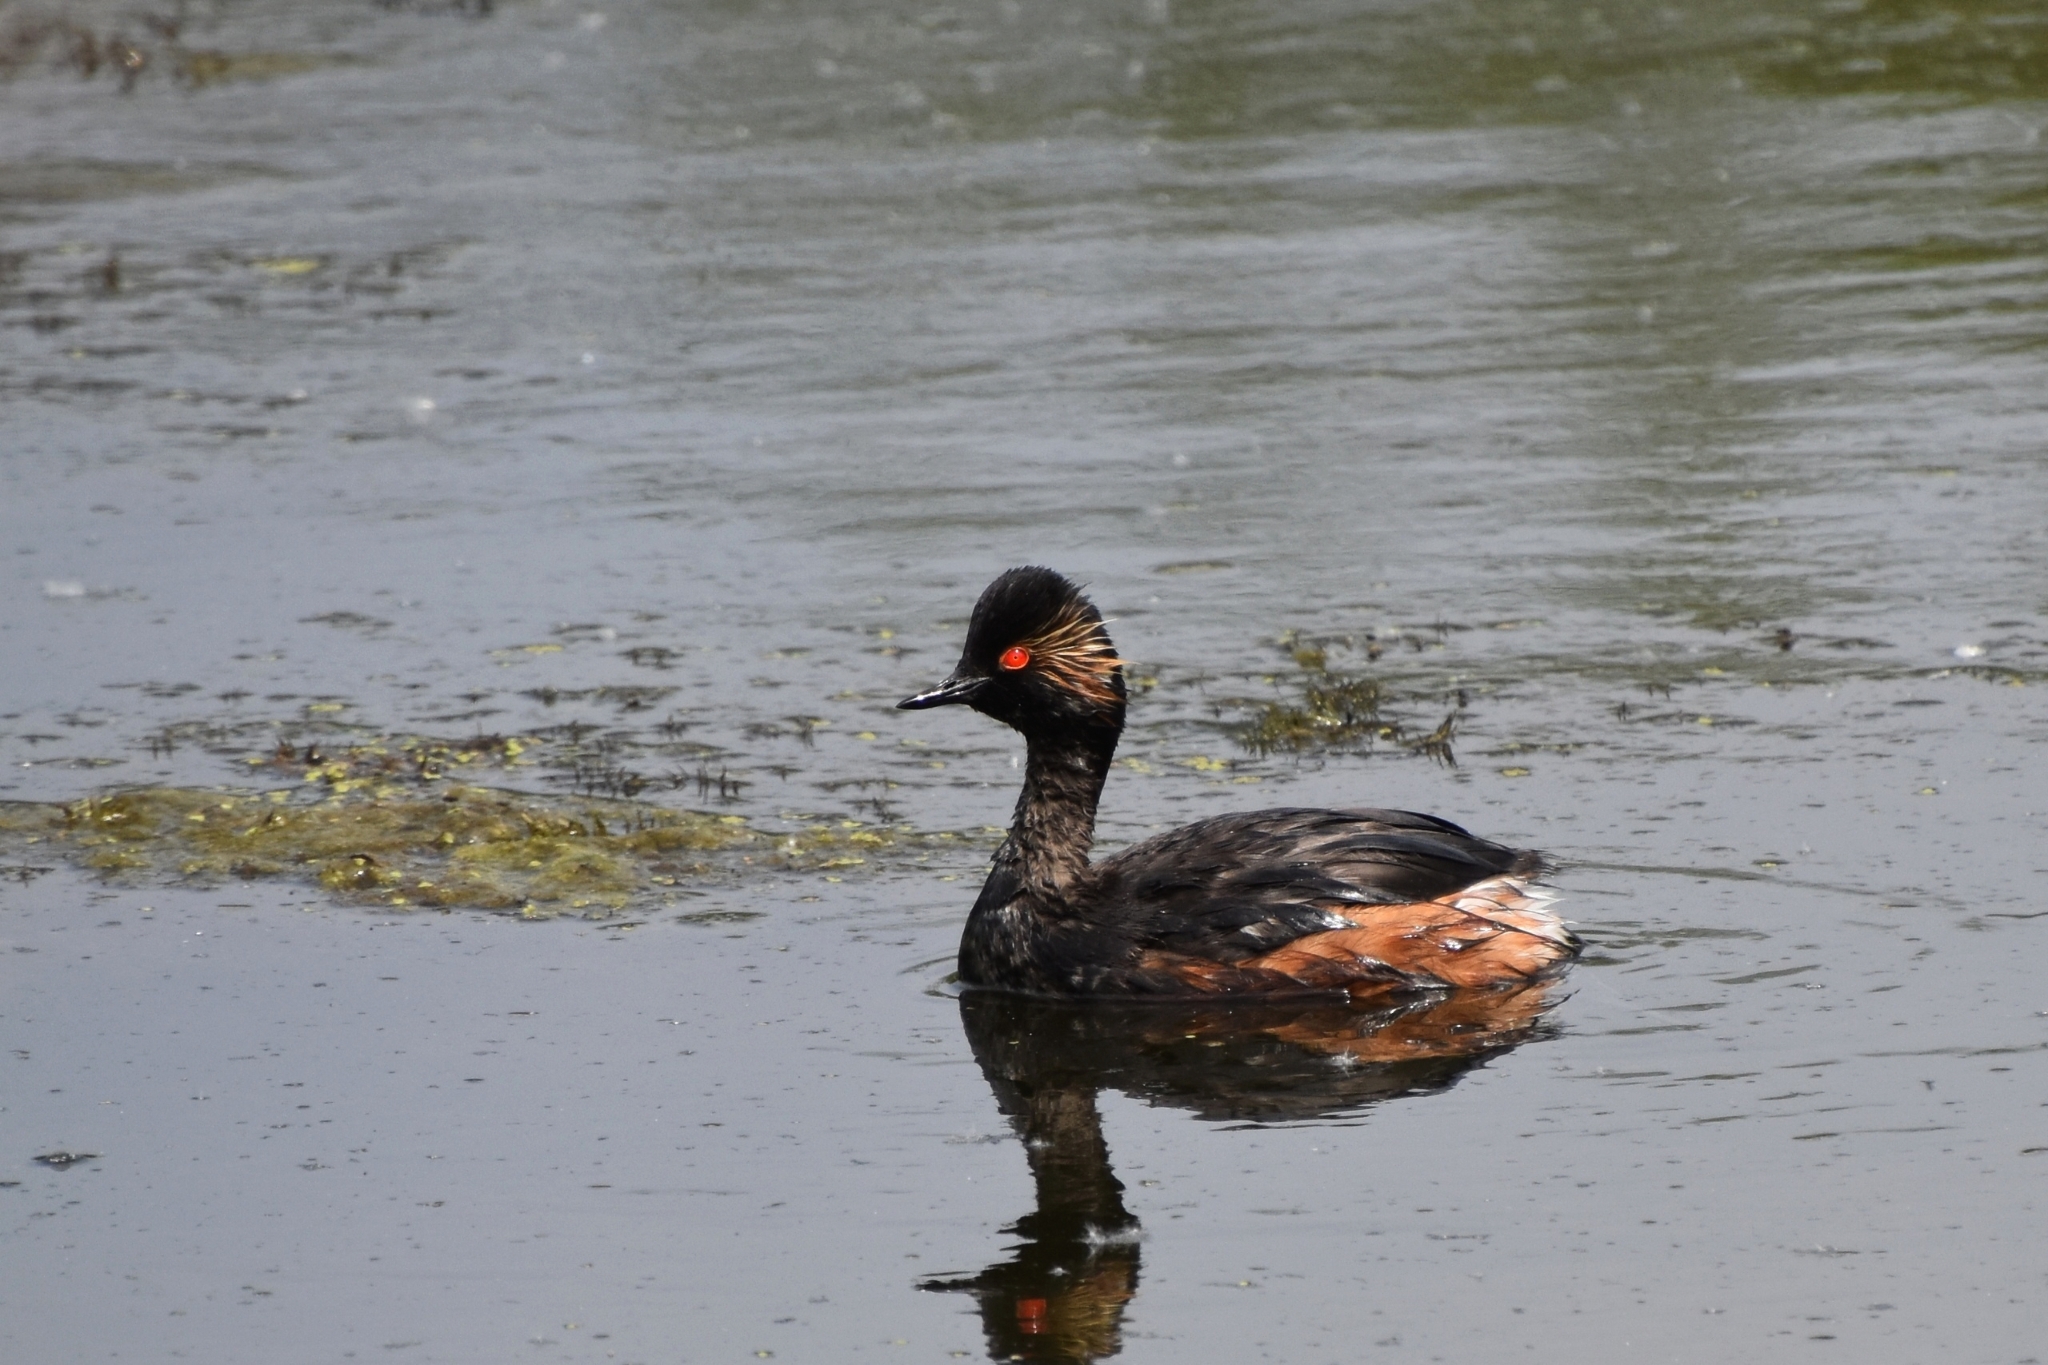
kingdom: Animalia
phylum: Chordata
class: Aves
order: Podicipediformes
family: Podicipedidae
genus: Podiceps
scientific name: Podiceps nigricollis
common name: Black-necked grebe
